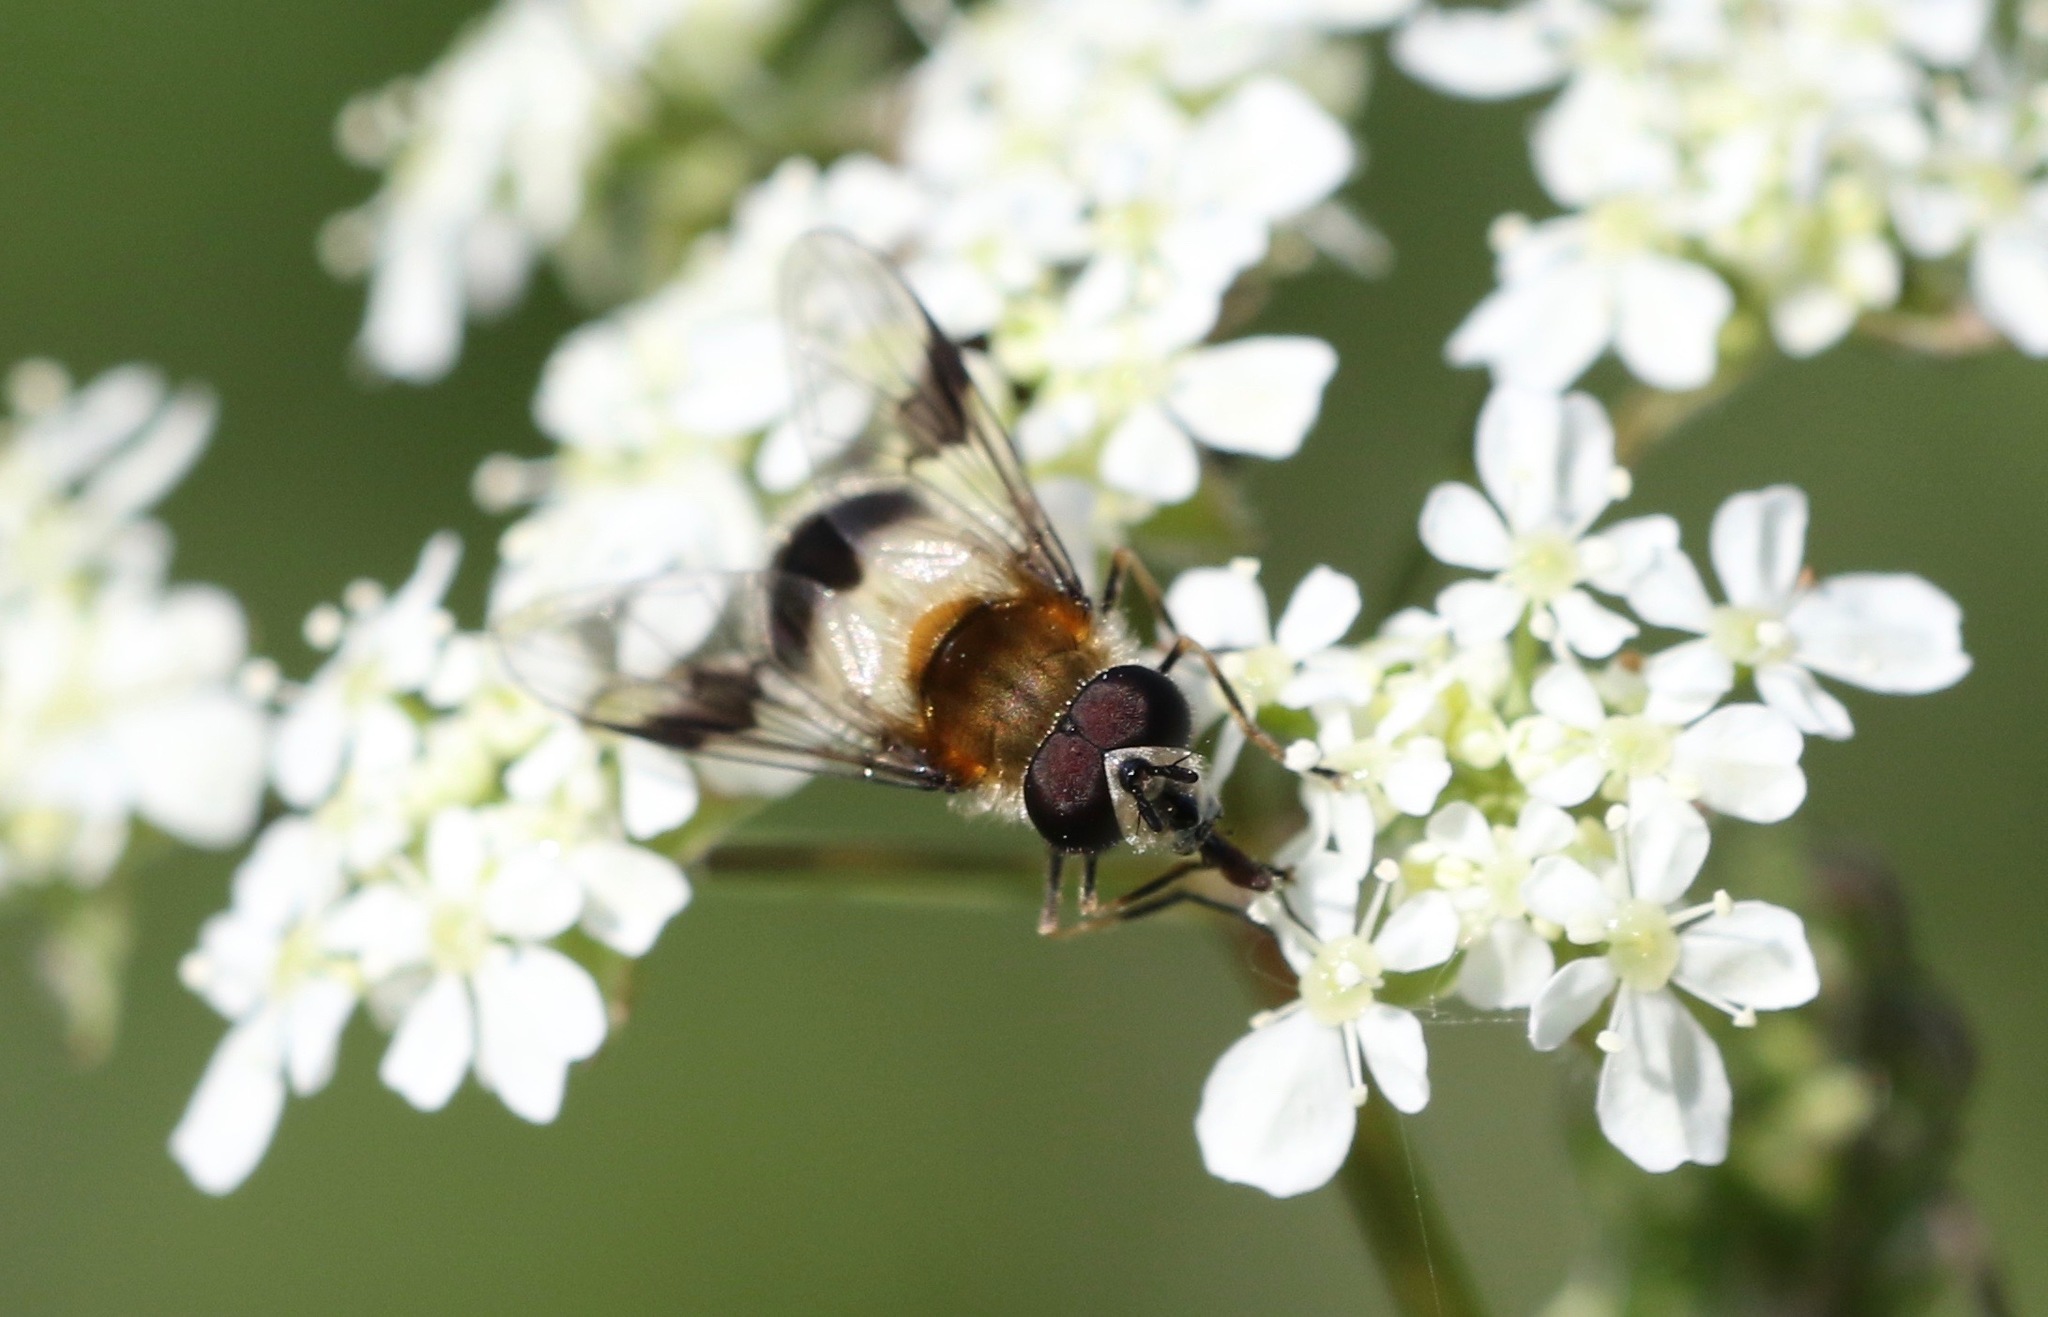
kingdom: Animalia
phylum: Arthropoda
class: Insecta
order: Diptera
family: Syrphidae
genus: Leucozona
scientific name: Leucozona lucorum
